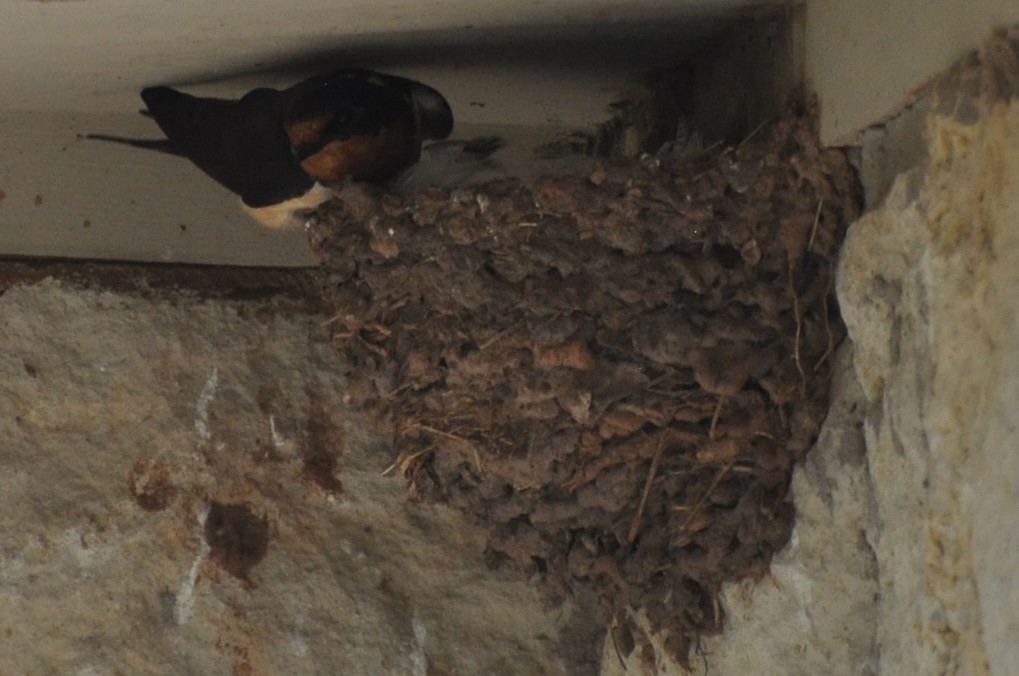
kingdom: Animalia
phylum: Chordata
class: Aves
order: Passeriformes
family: Hirundinidae
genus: Hirundo
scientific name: Hirundo rustica
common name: Barn swallow
